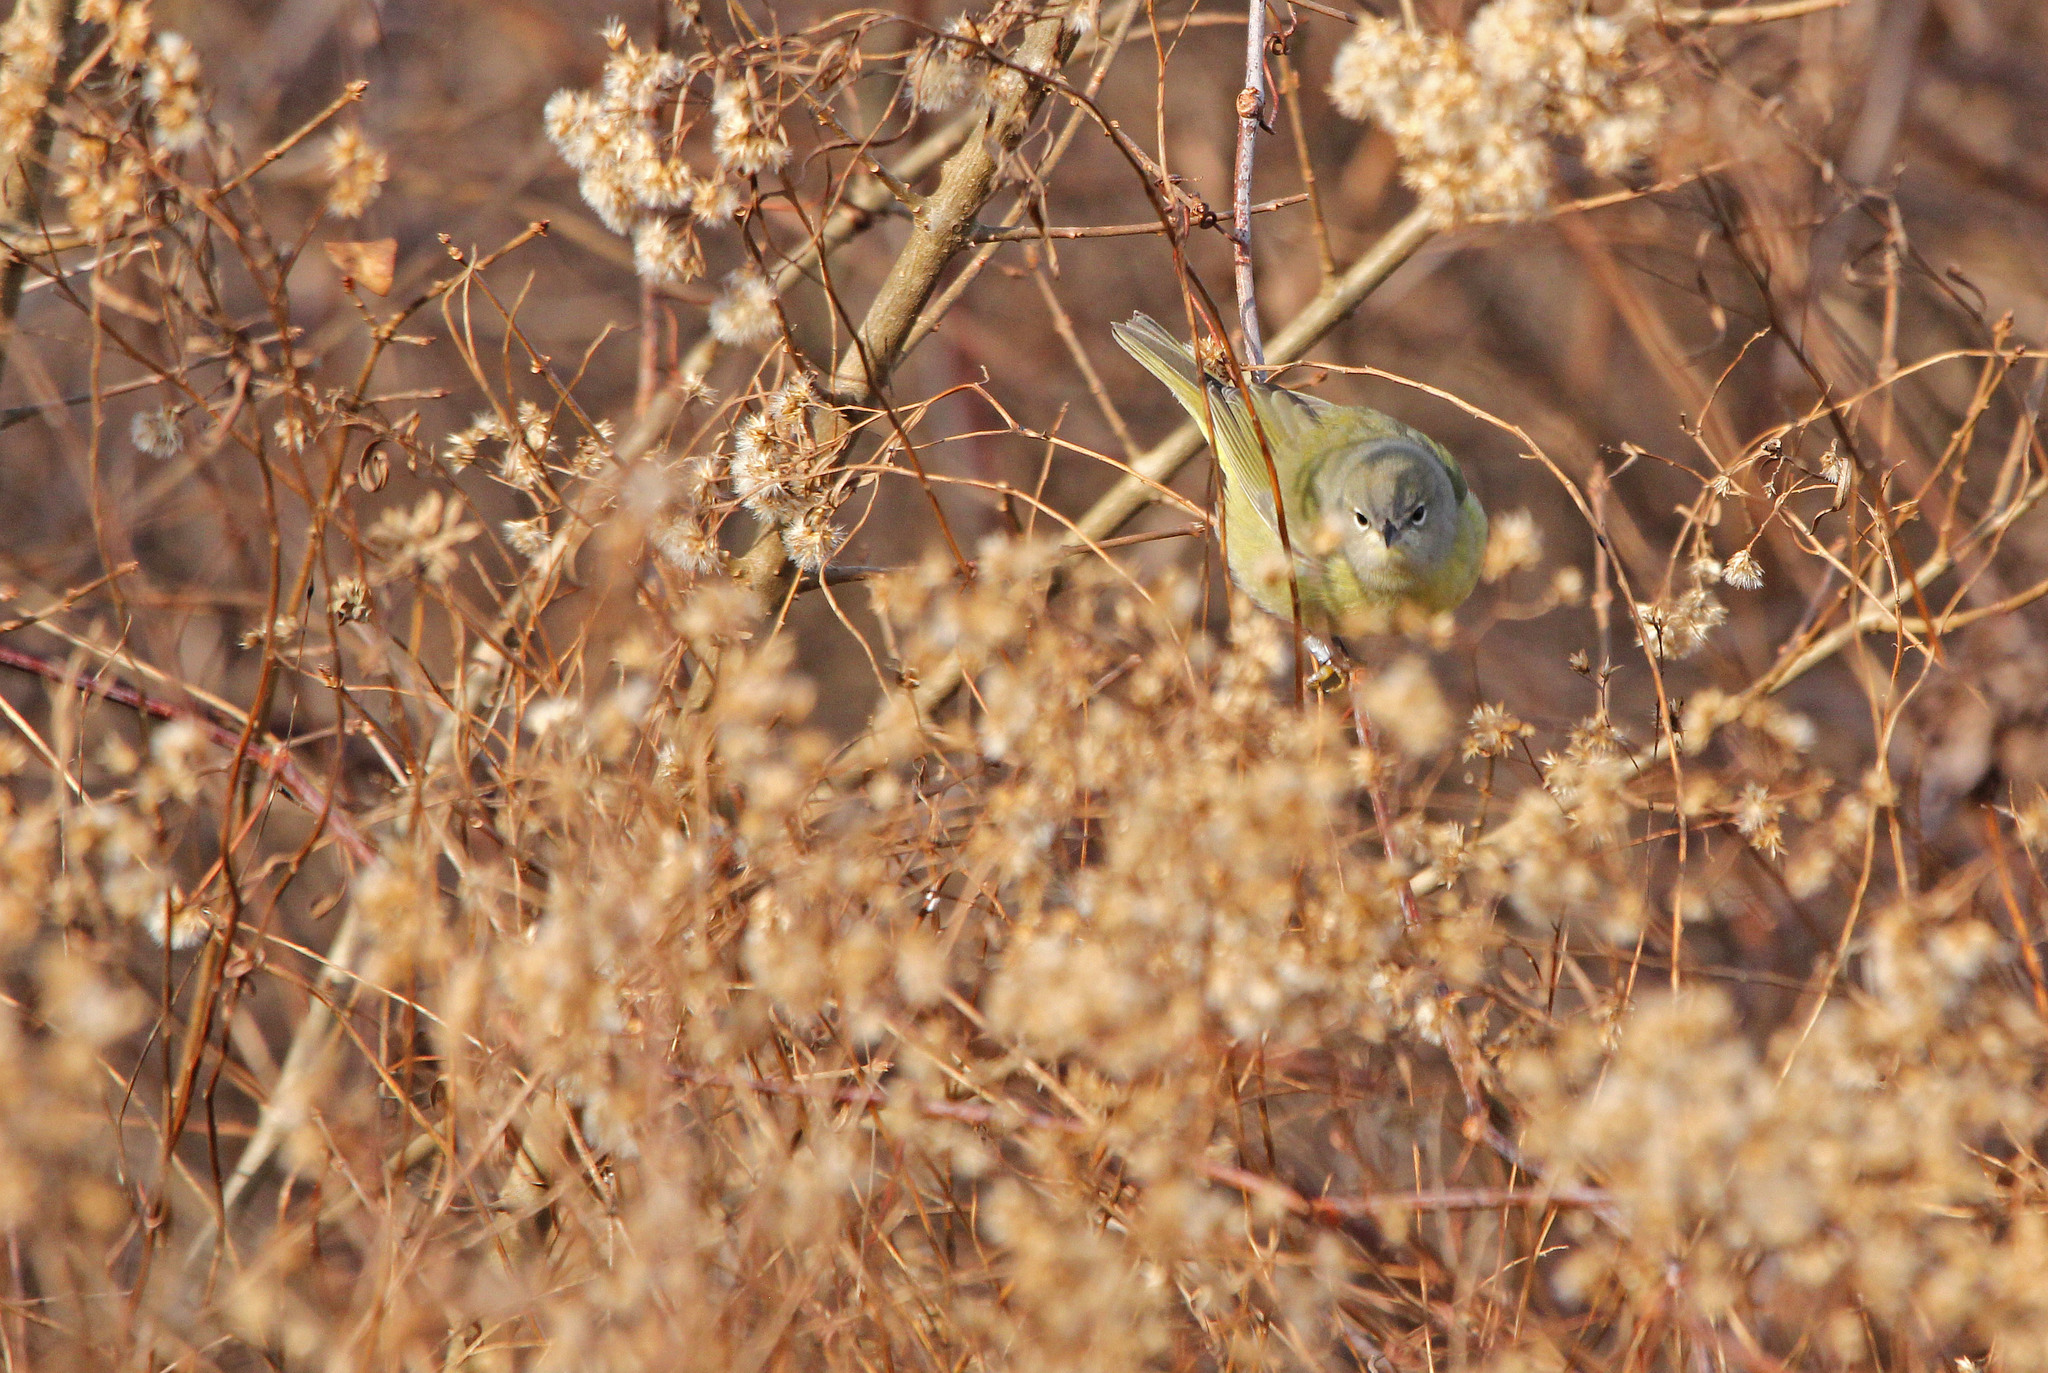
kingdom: Animalia
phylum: Chordata
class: Aves
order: Passeriformes
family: Parulidae
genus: Leiothlypis
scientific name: Leiothlypis celata
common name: Orange-crowned warbler
